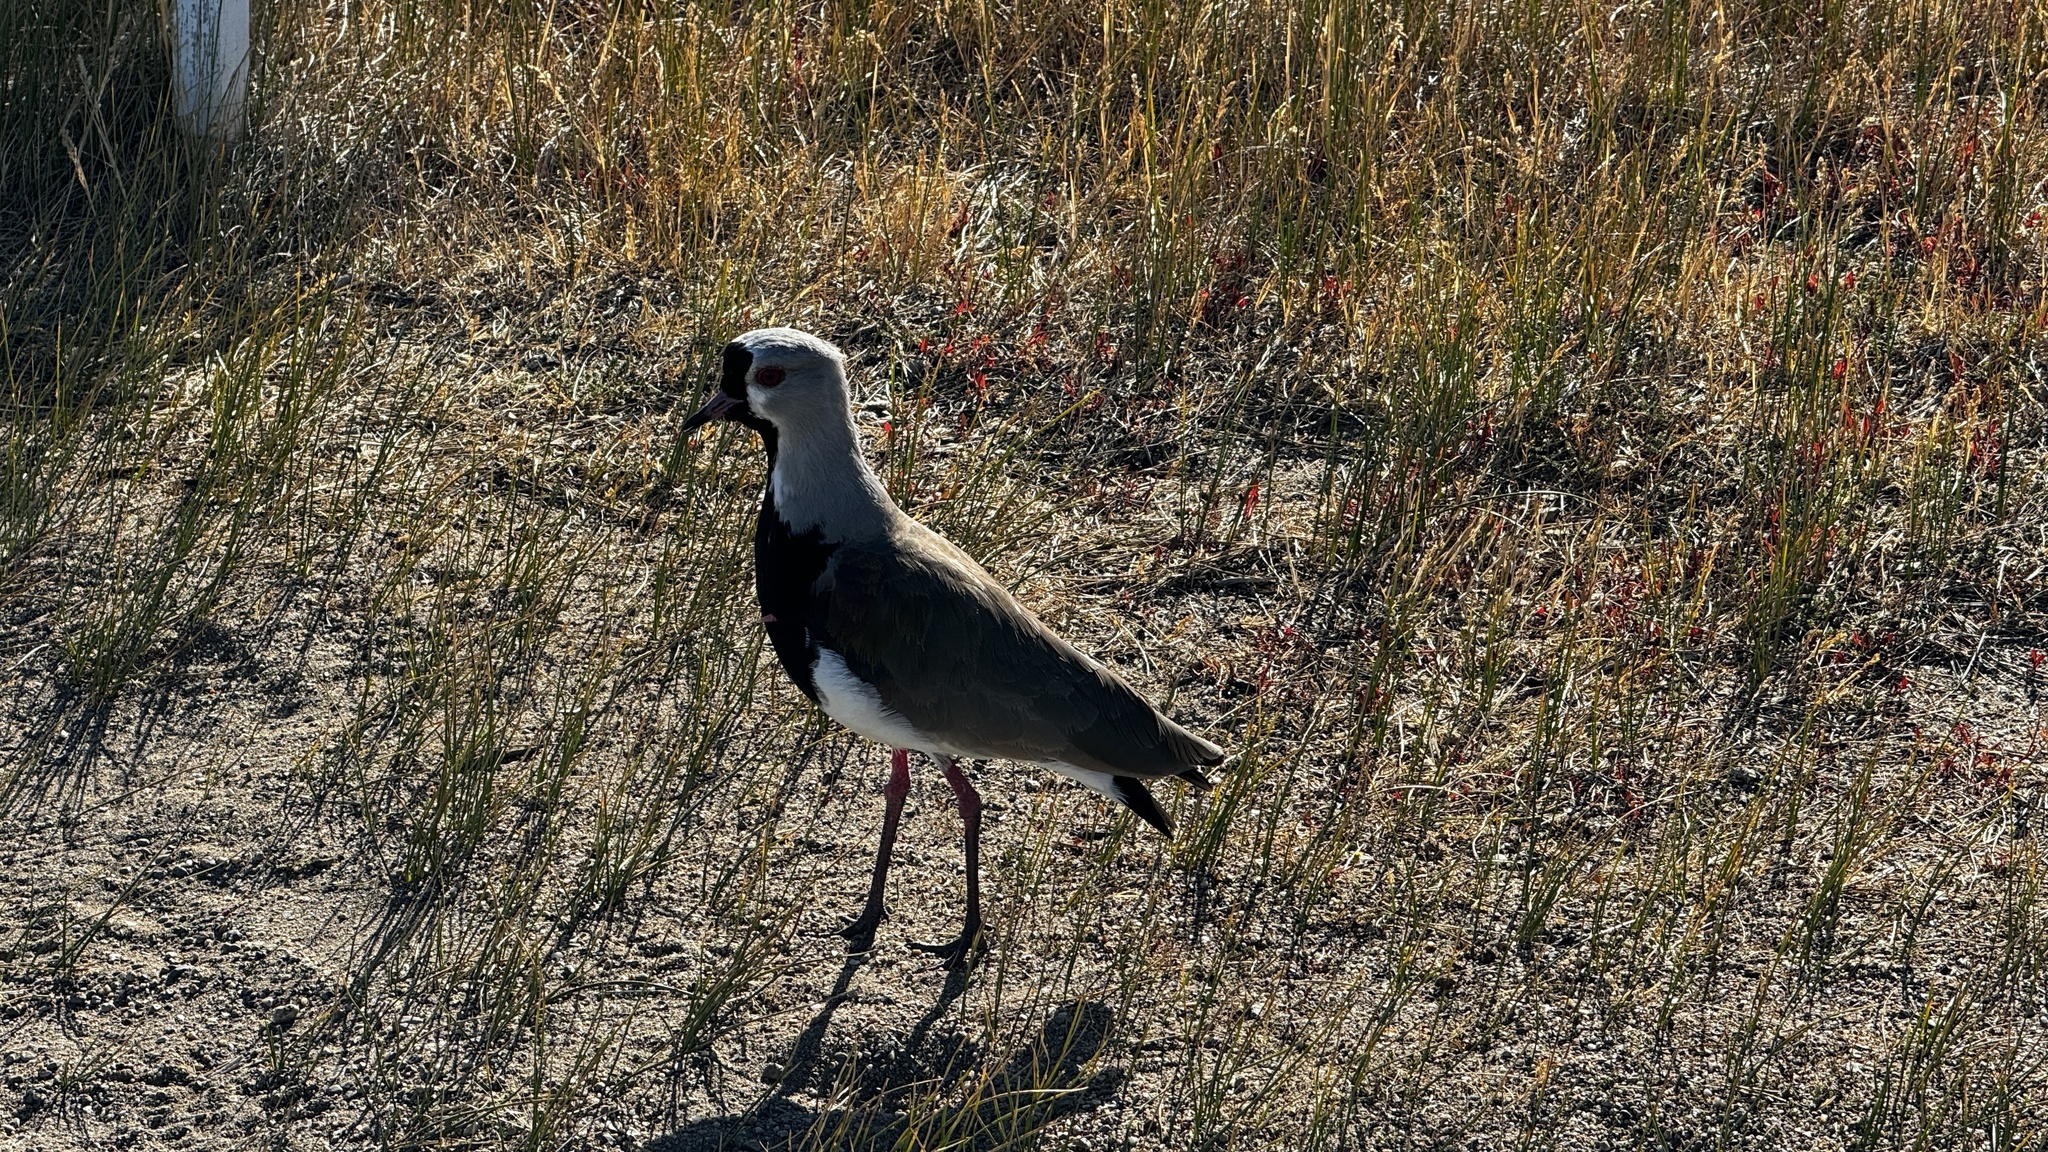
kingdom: Animalia
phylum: Chordata
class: Aves
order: Charadriiformes
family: Charadriidae
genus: Vanellus
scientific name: Vanellus chilensis
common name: Southern lapwing
